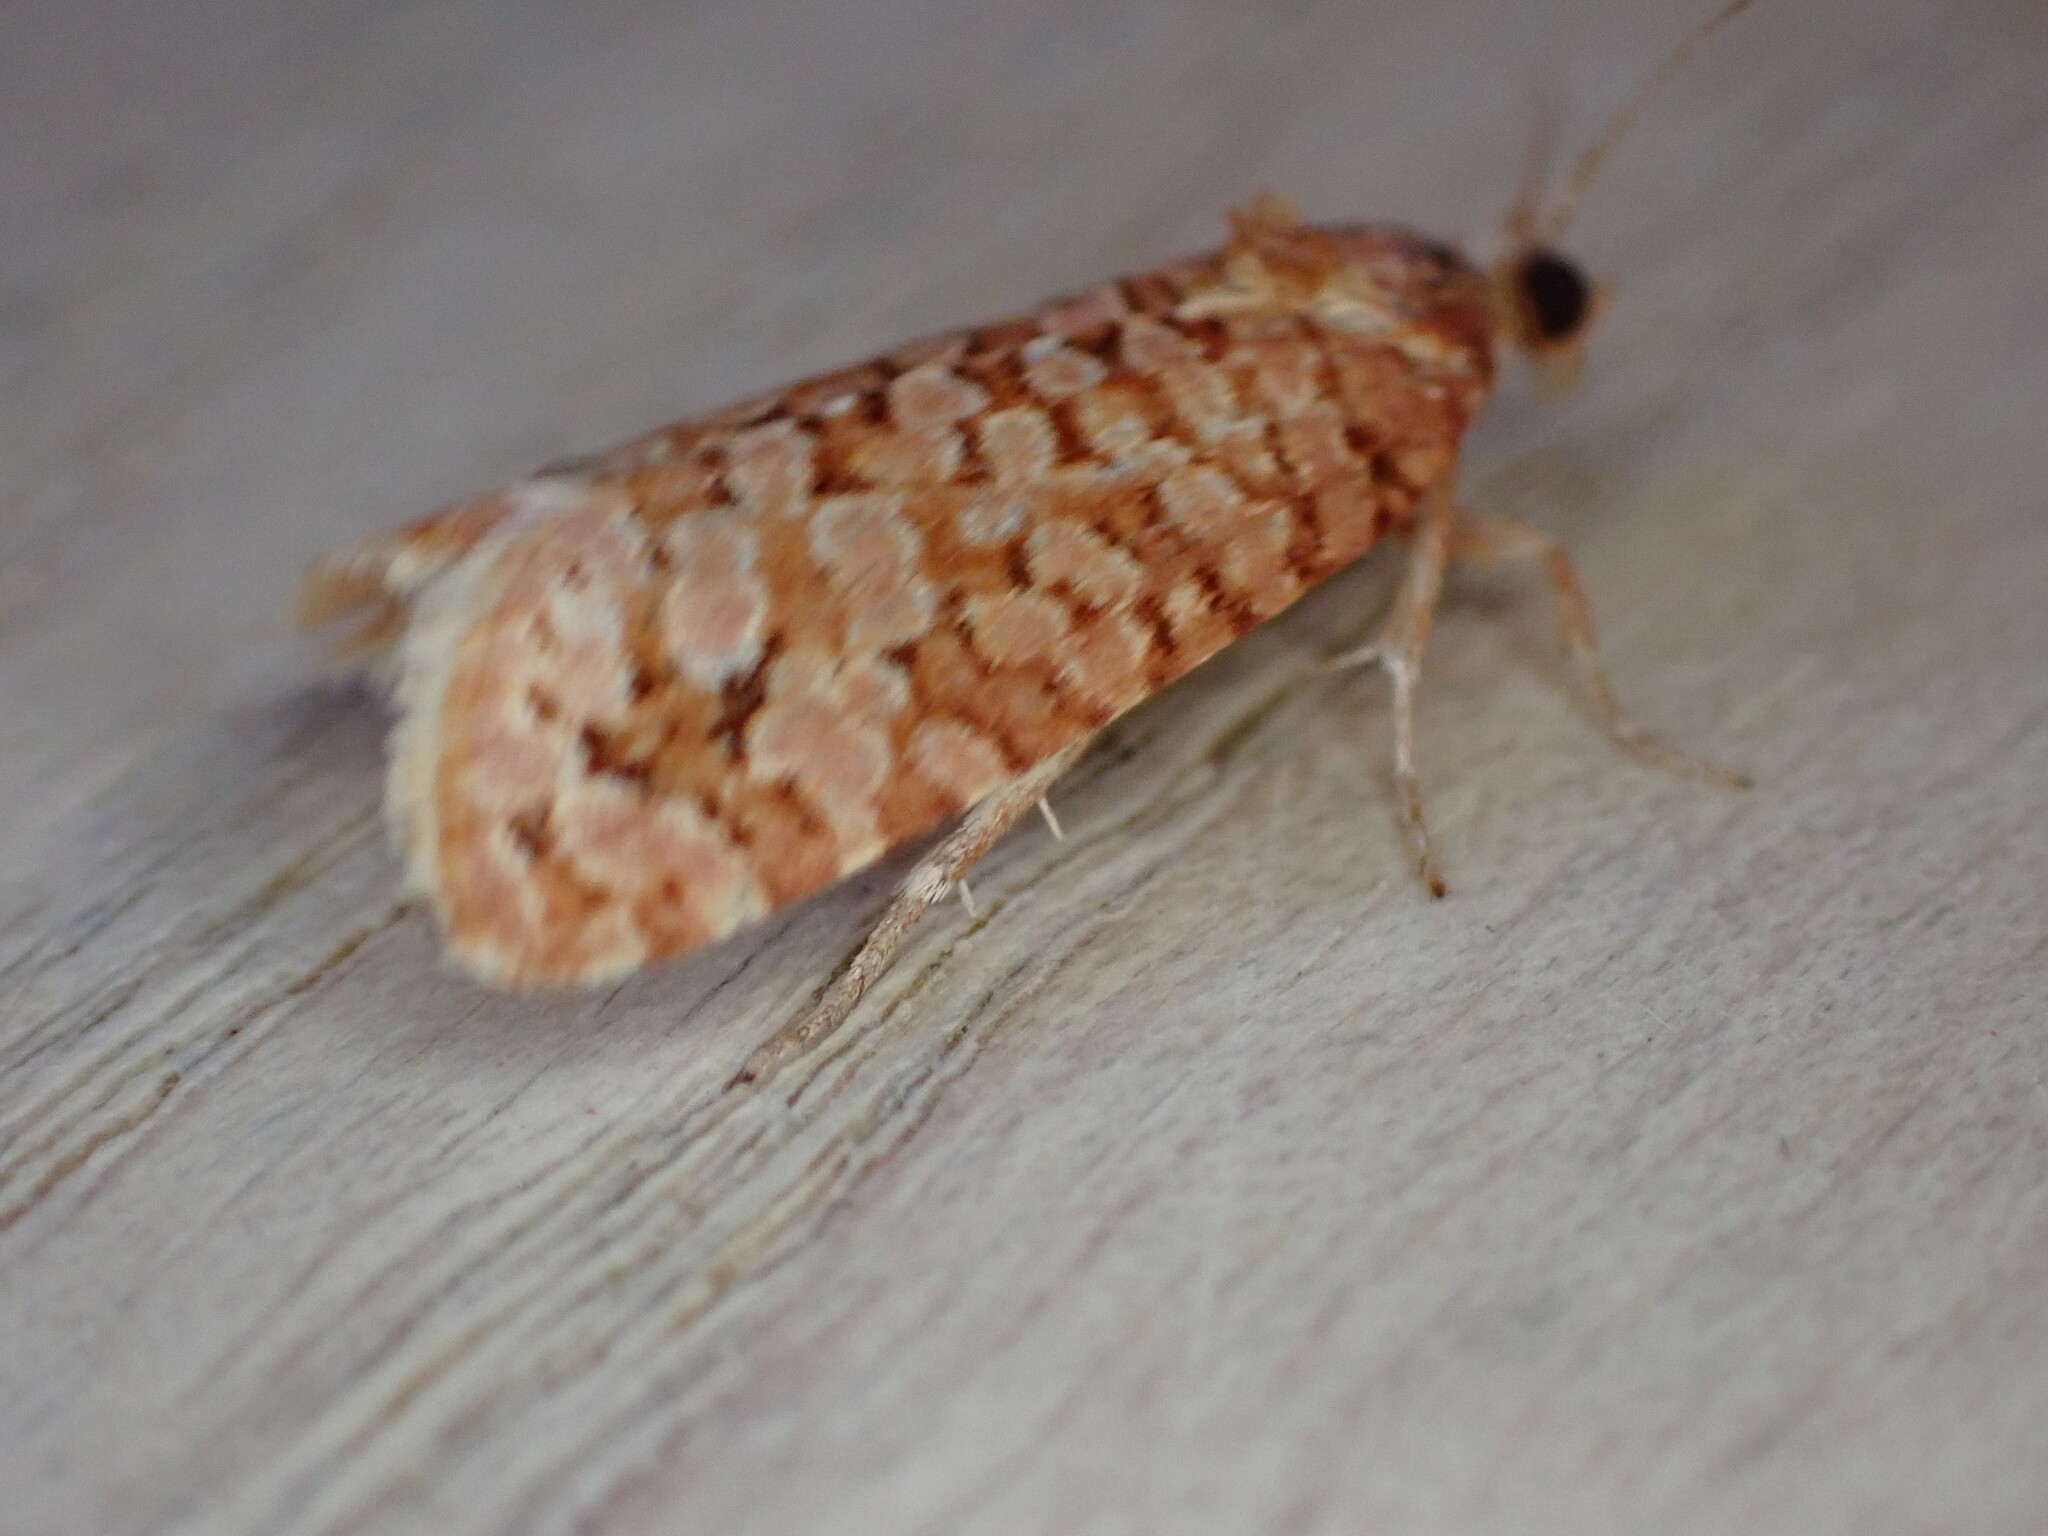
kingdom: Animalia
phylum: Arthropoda
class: Insecta
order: Lepidoptera
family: Tortricidae
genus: Lozotaeniodes
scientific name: Lozotaeniodes formosana
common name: Orange pine twist
